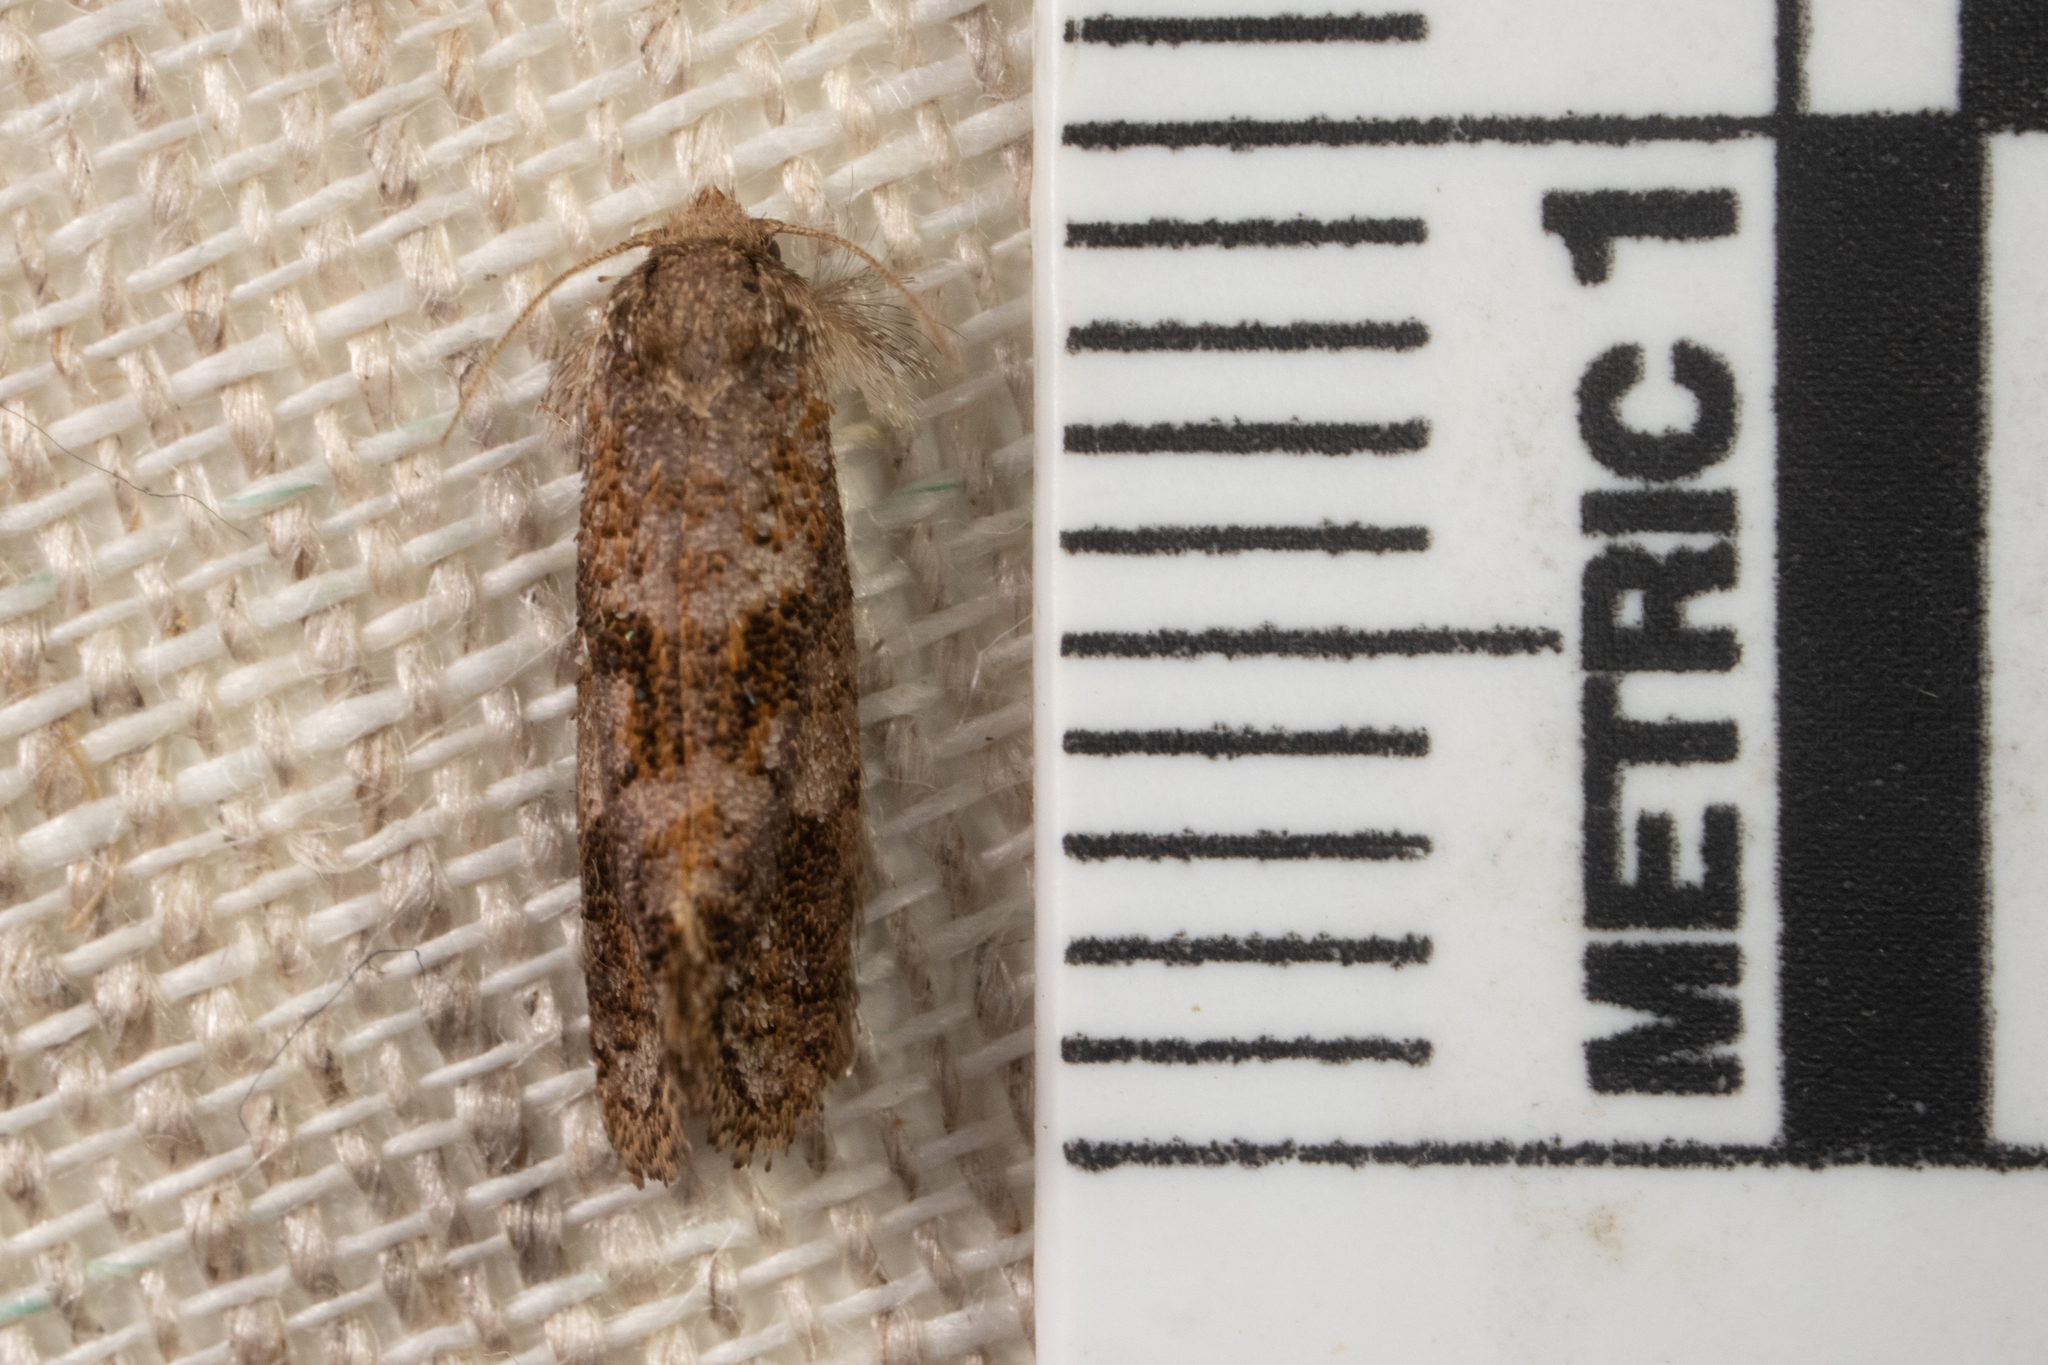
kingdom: Animalia
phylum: Arthropoda
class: Insecta
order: Lepidoptera
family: Tineidae
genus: Acrolophus
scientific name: Acrolophus panamae
